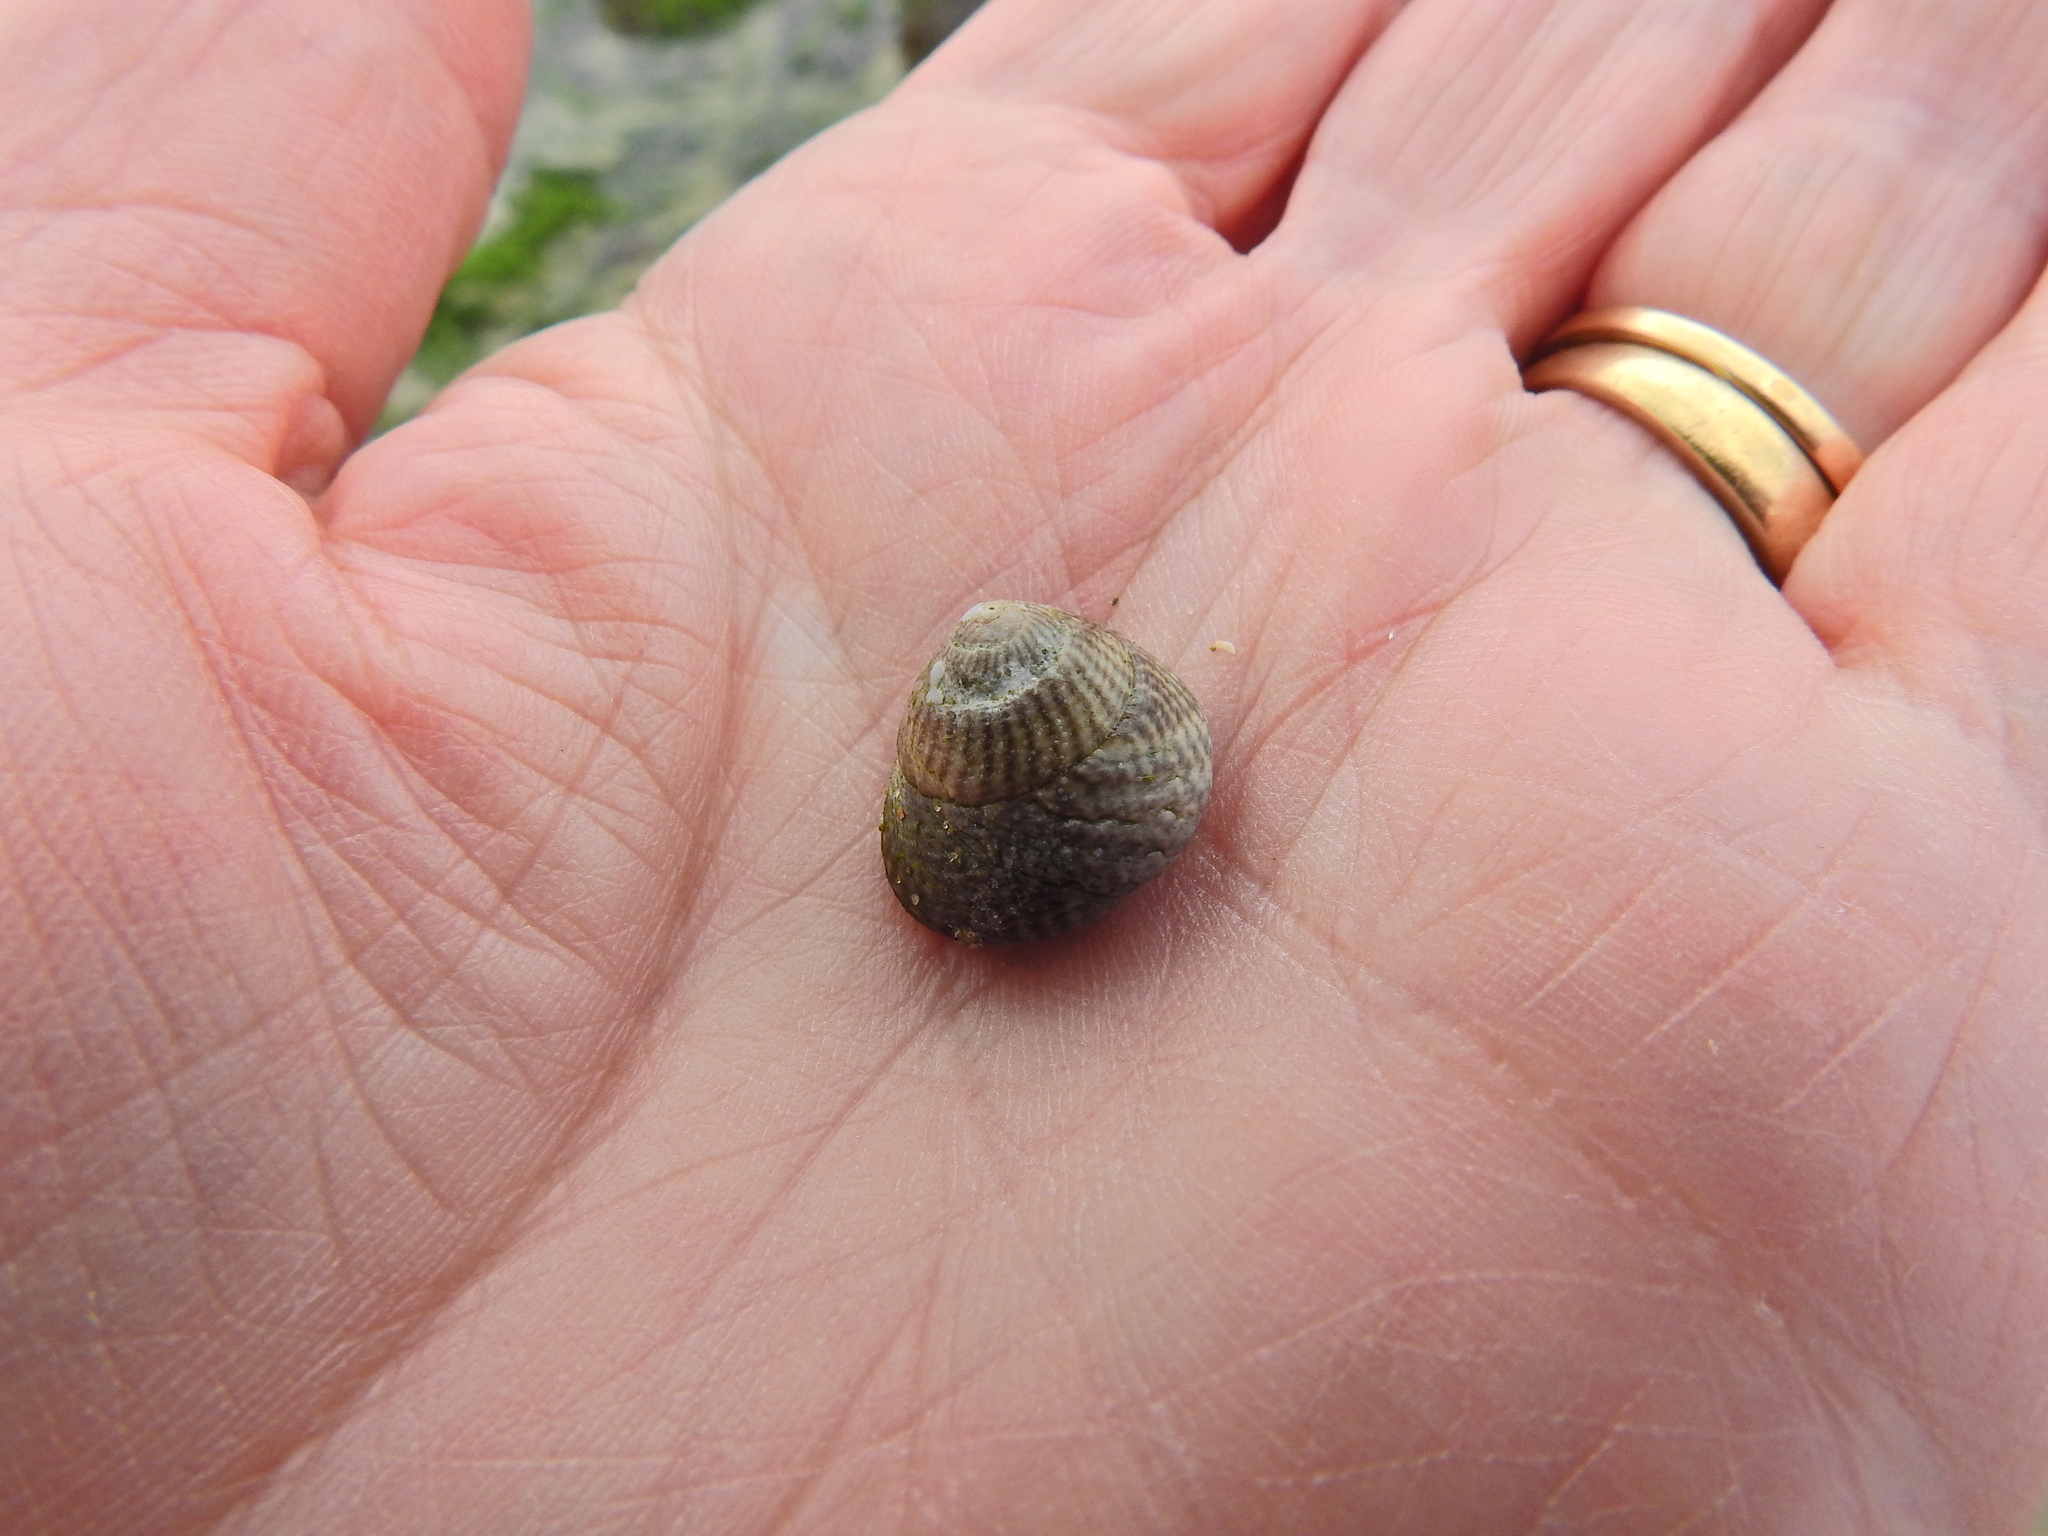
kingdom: Animalia
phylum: Mollusca
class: Gastropoda
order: Trochida
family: Trochidae
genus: Steromphala
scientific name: Steromphala cineraria
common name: Grey top shell
